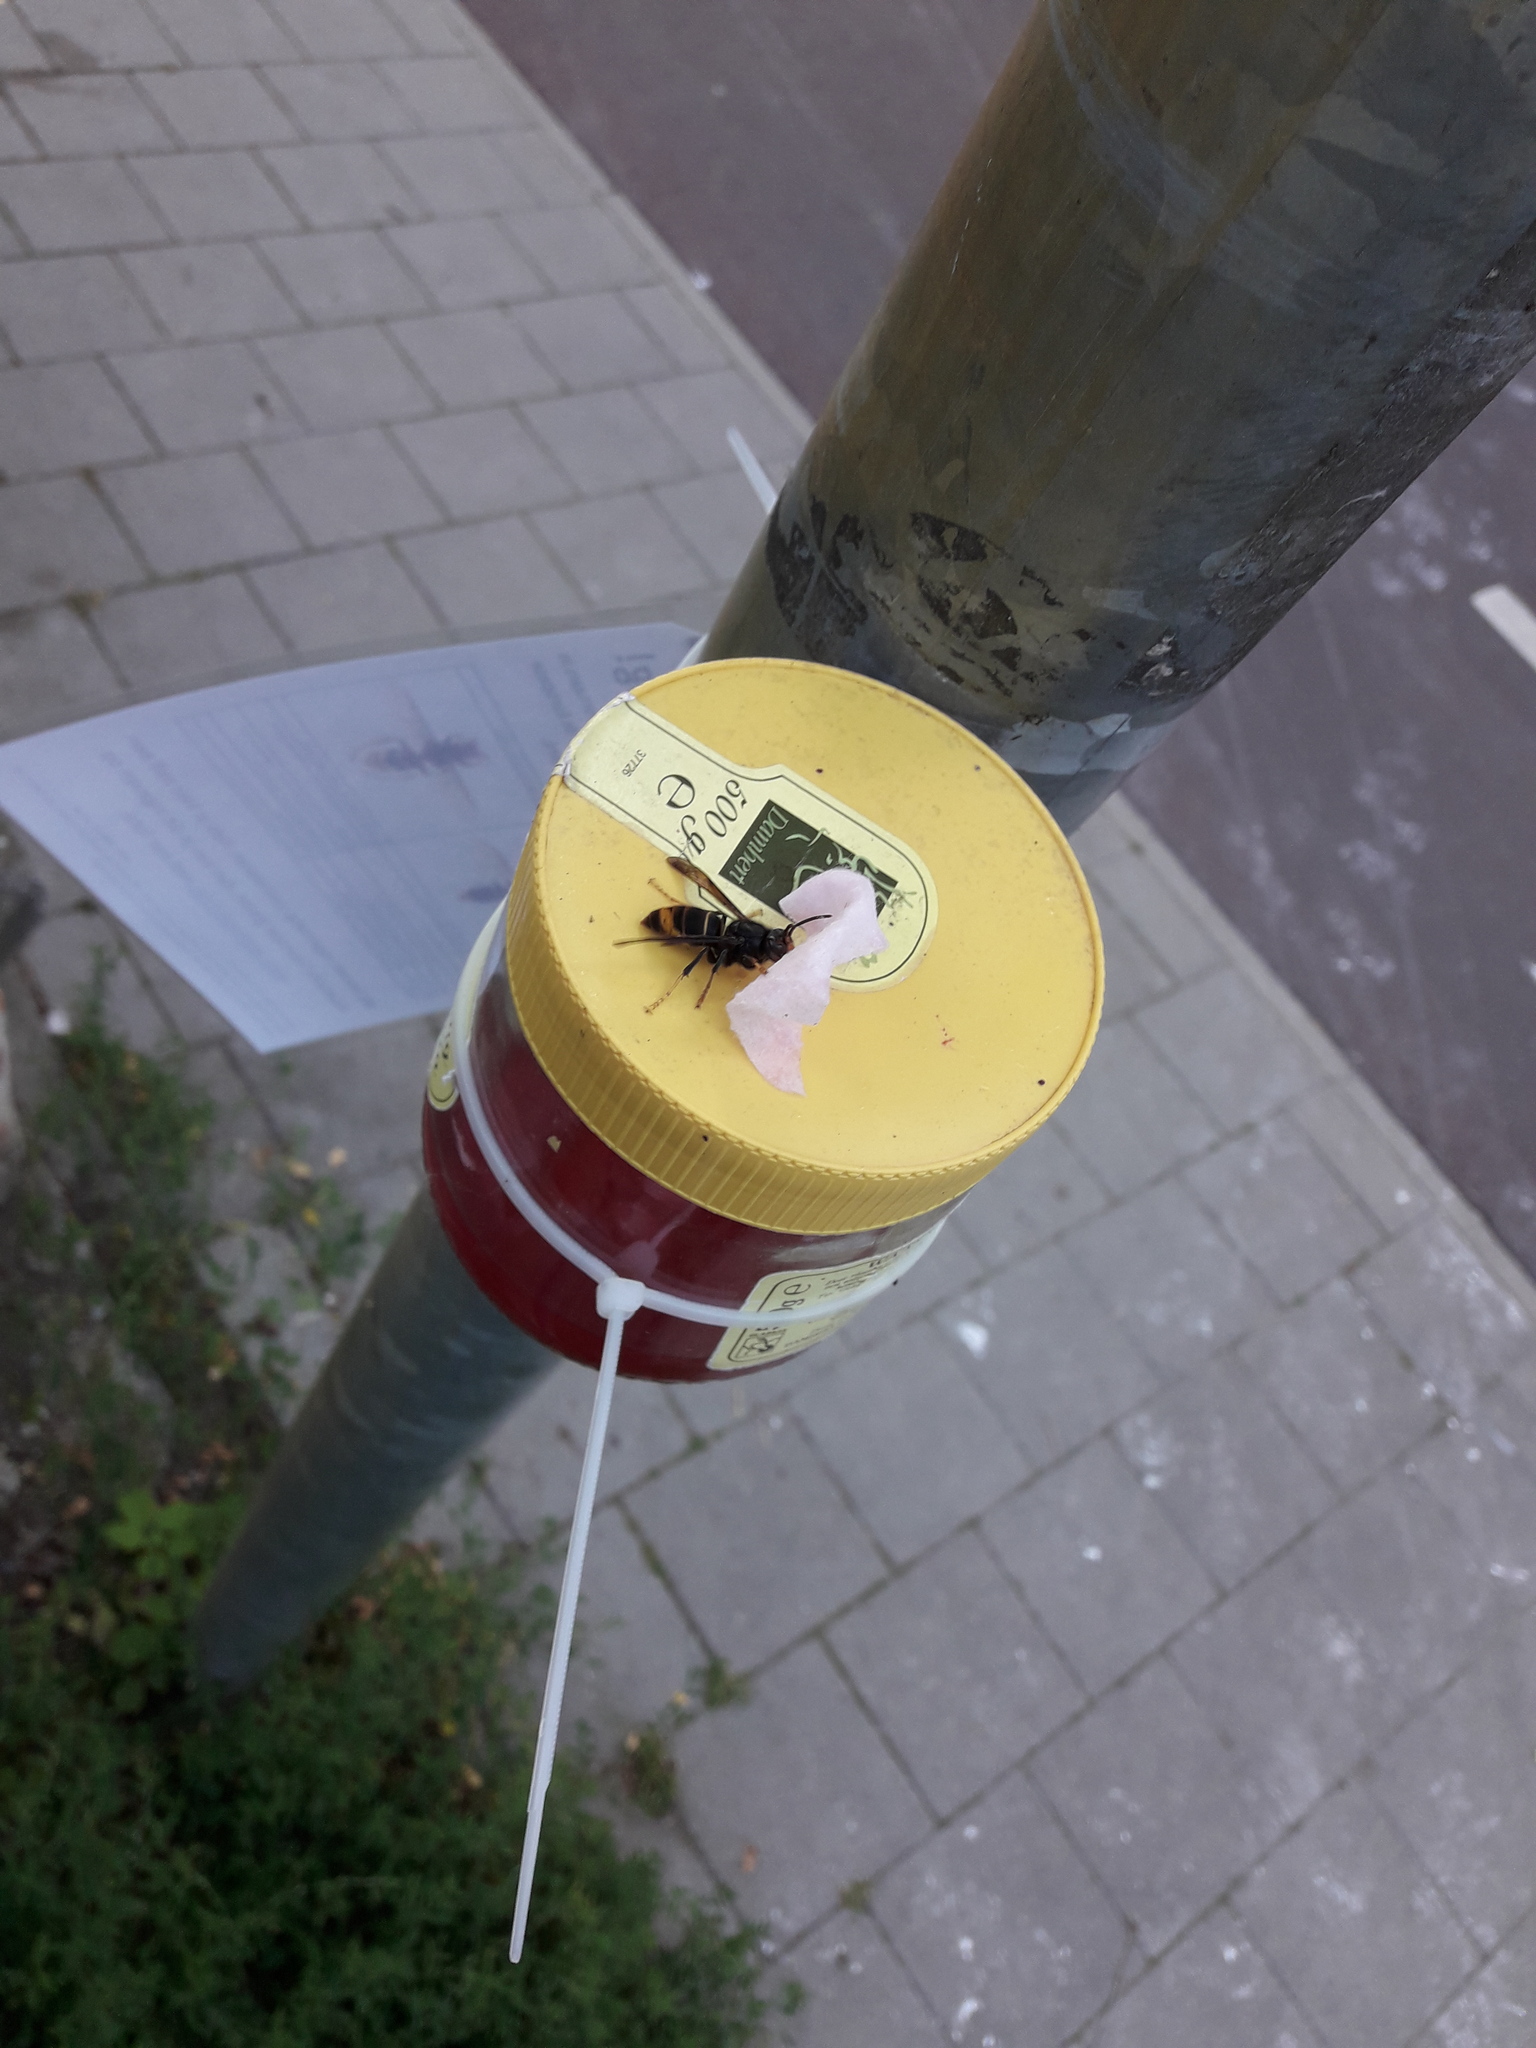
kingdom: Animalia
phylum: Arthropoda
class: Insecta
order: Hymenoptera
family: Vespidae
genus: Vespa
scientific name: Vespa velutina
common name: Asian hornet
